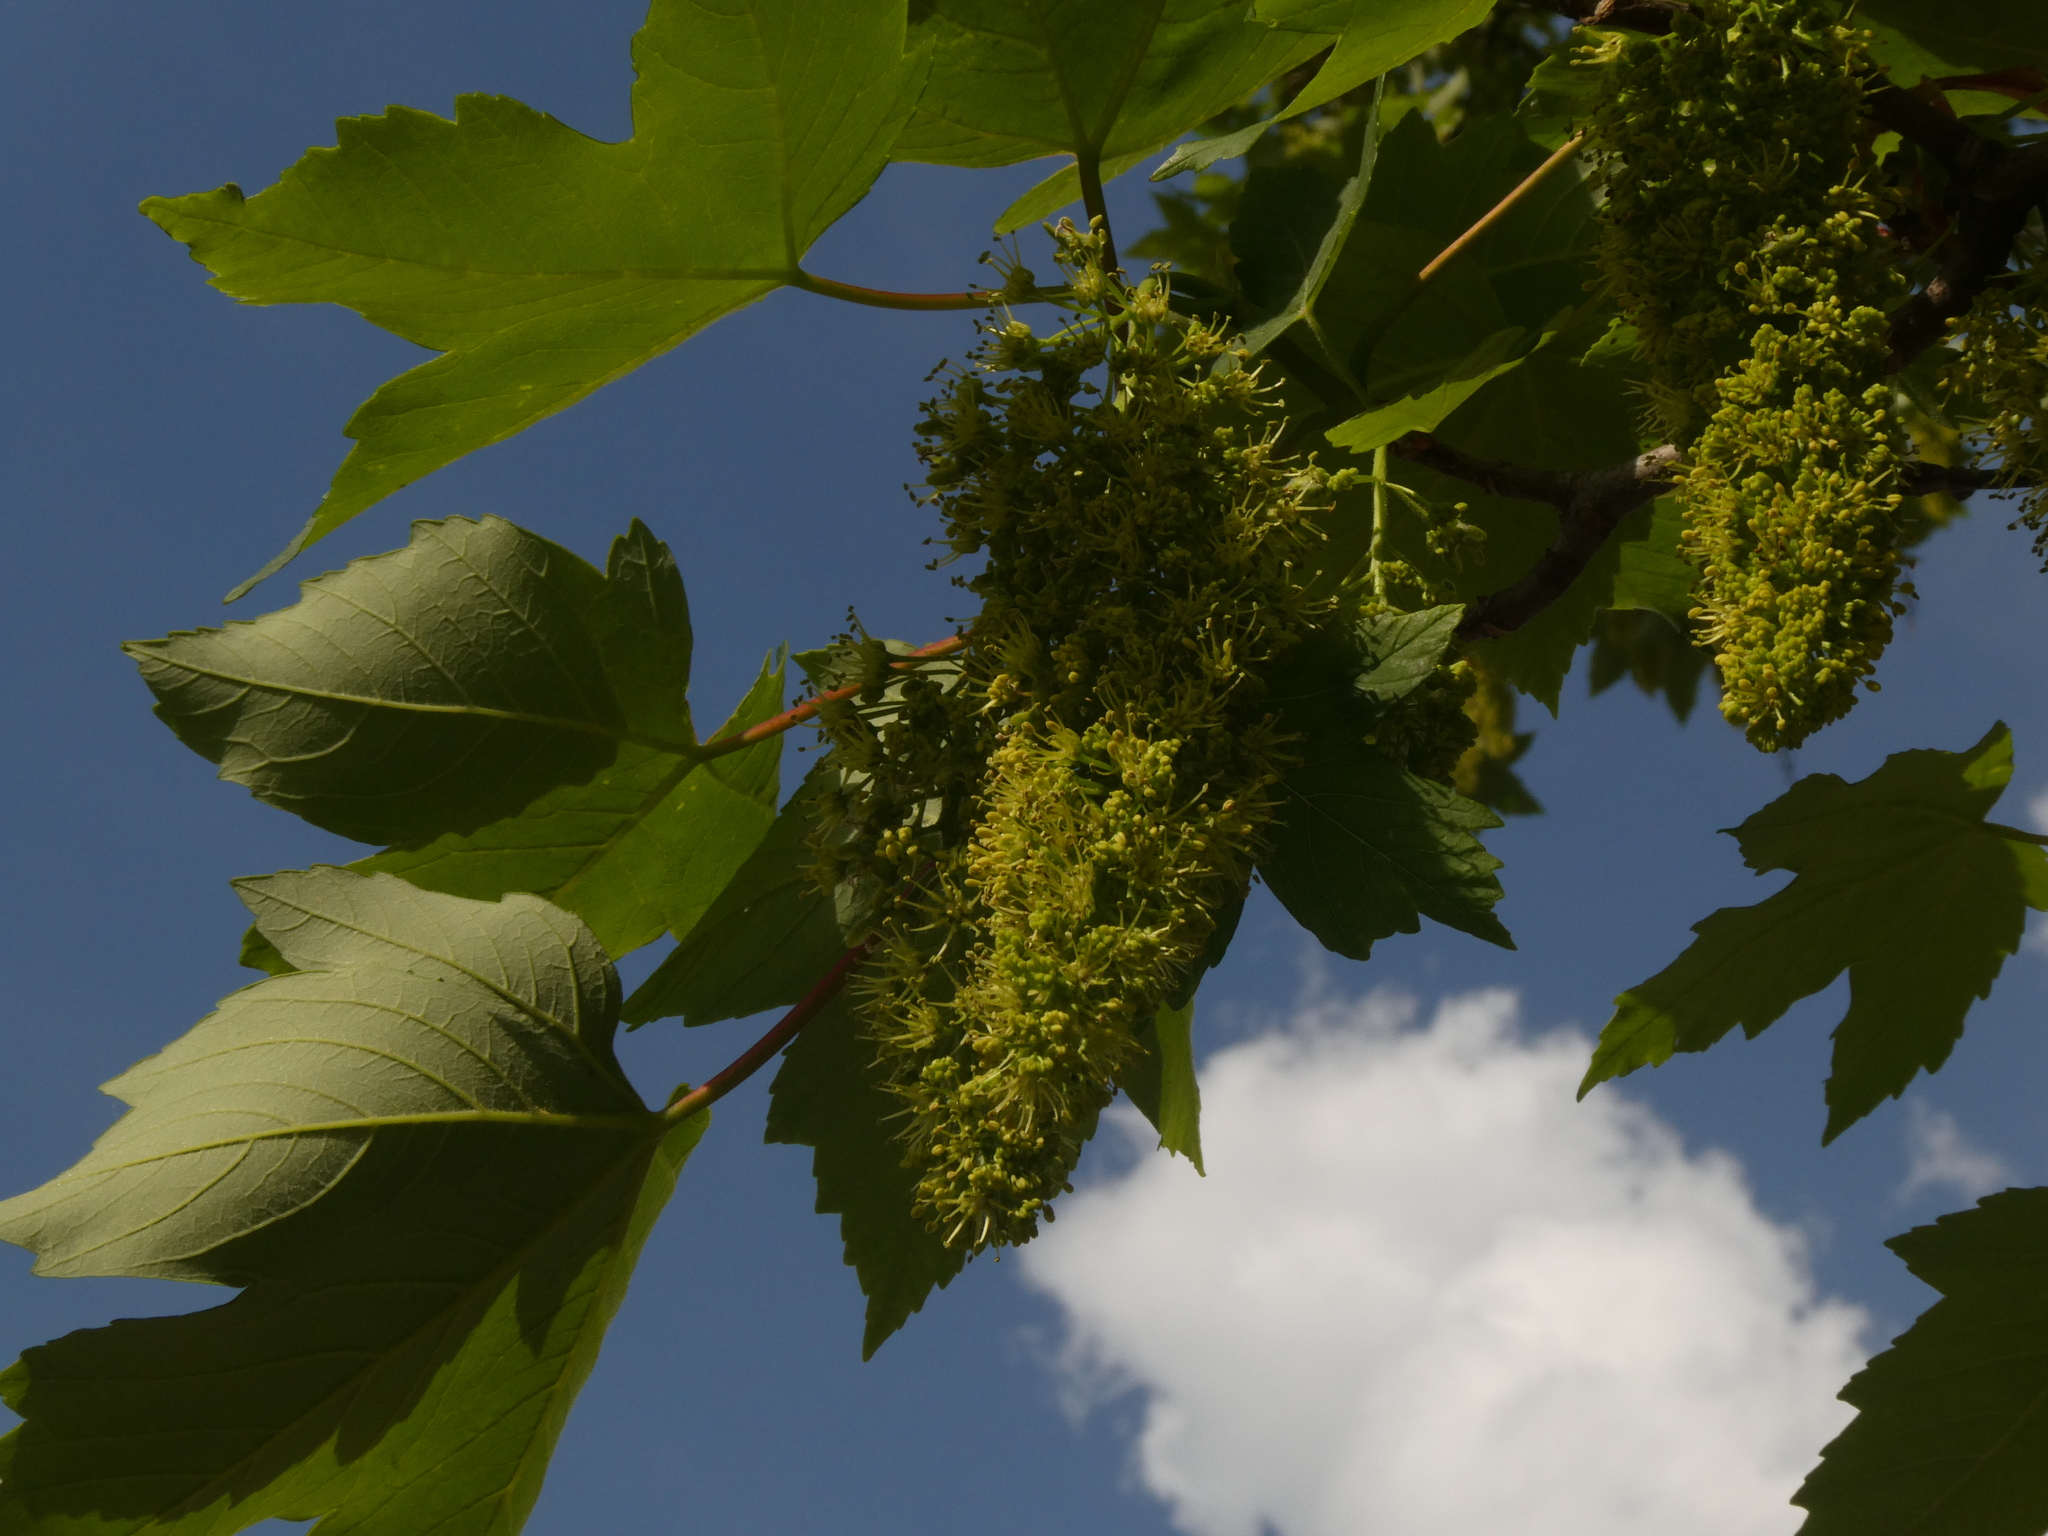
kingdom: Plantae
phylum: Tracheophyta
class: Magnoliopsida
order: Sapindales
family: Sapindaceae
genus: Acer
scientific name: Acer pseudoplatanus
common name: Sycamore
